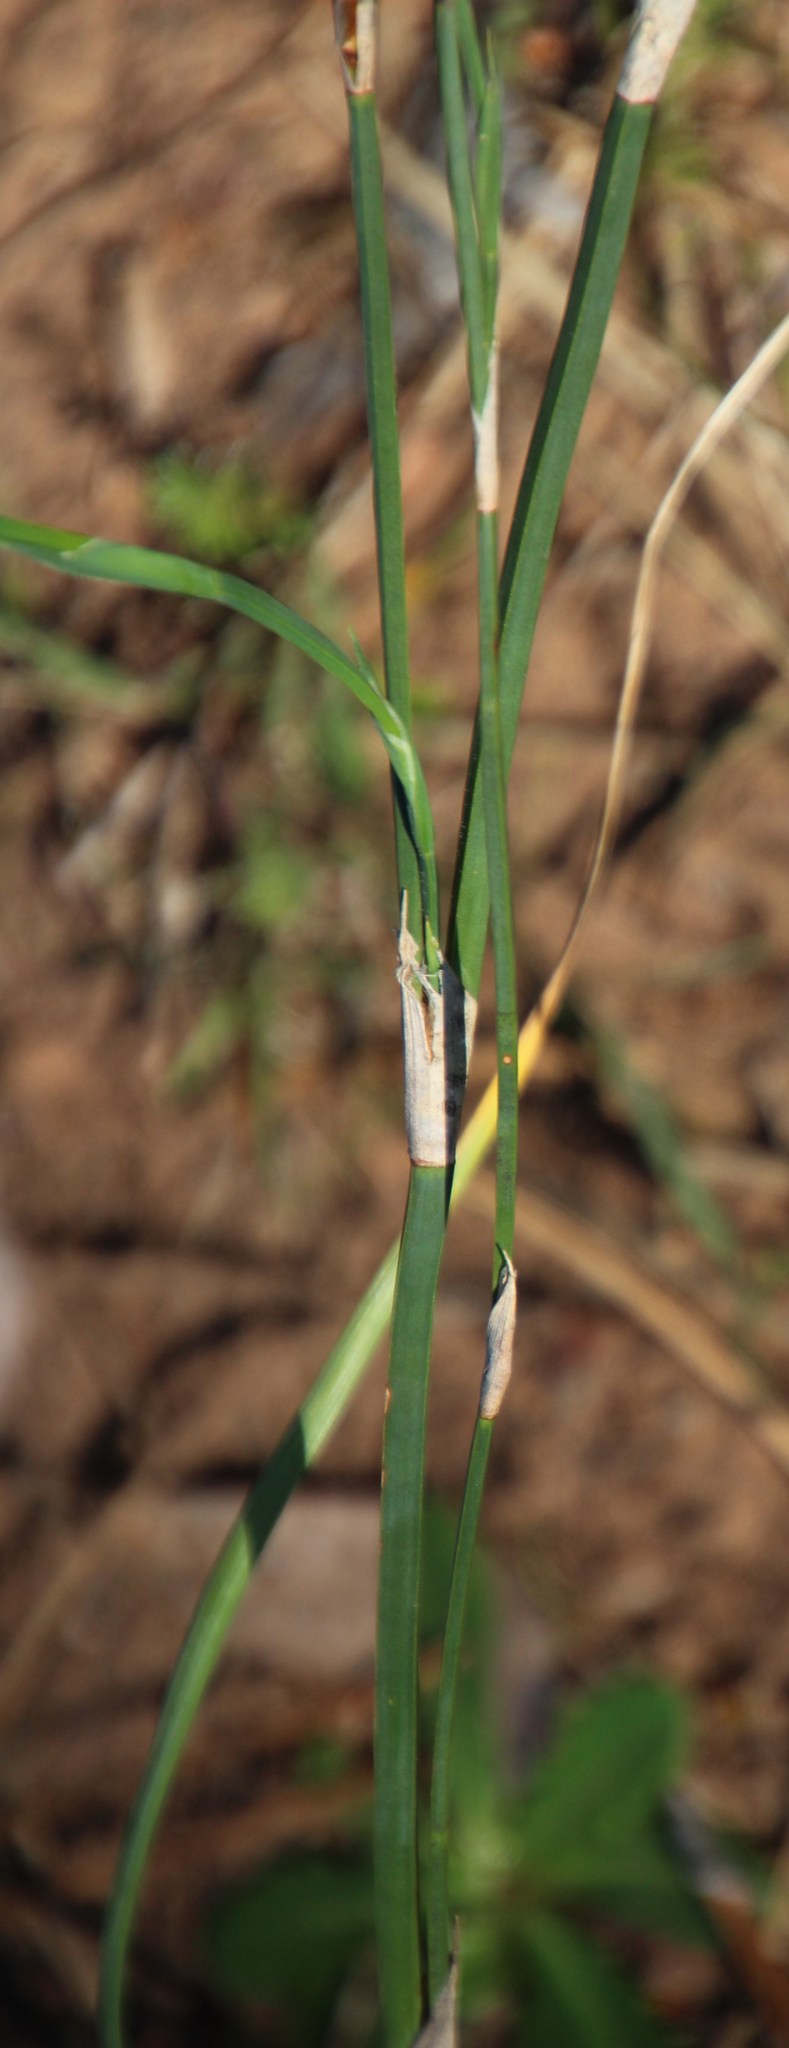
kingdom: Plantae
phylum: Tracheophyta
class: Liliopsida
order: Poales
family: Restionaceae
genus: Restio
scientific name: Restio tetragonus
